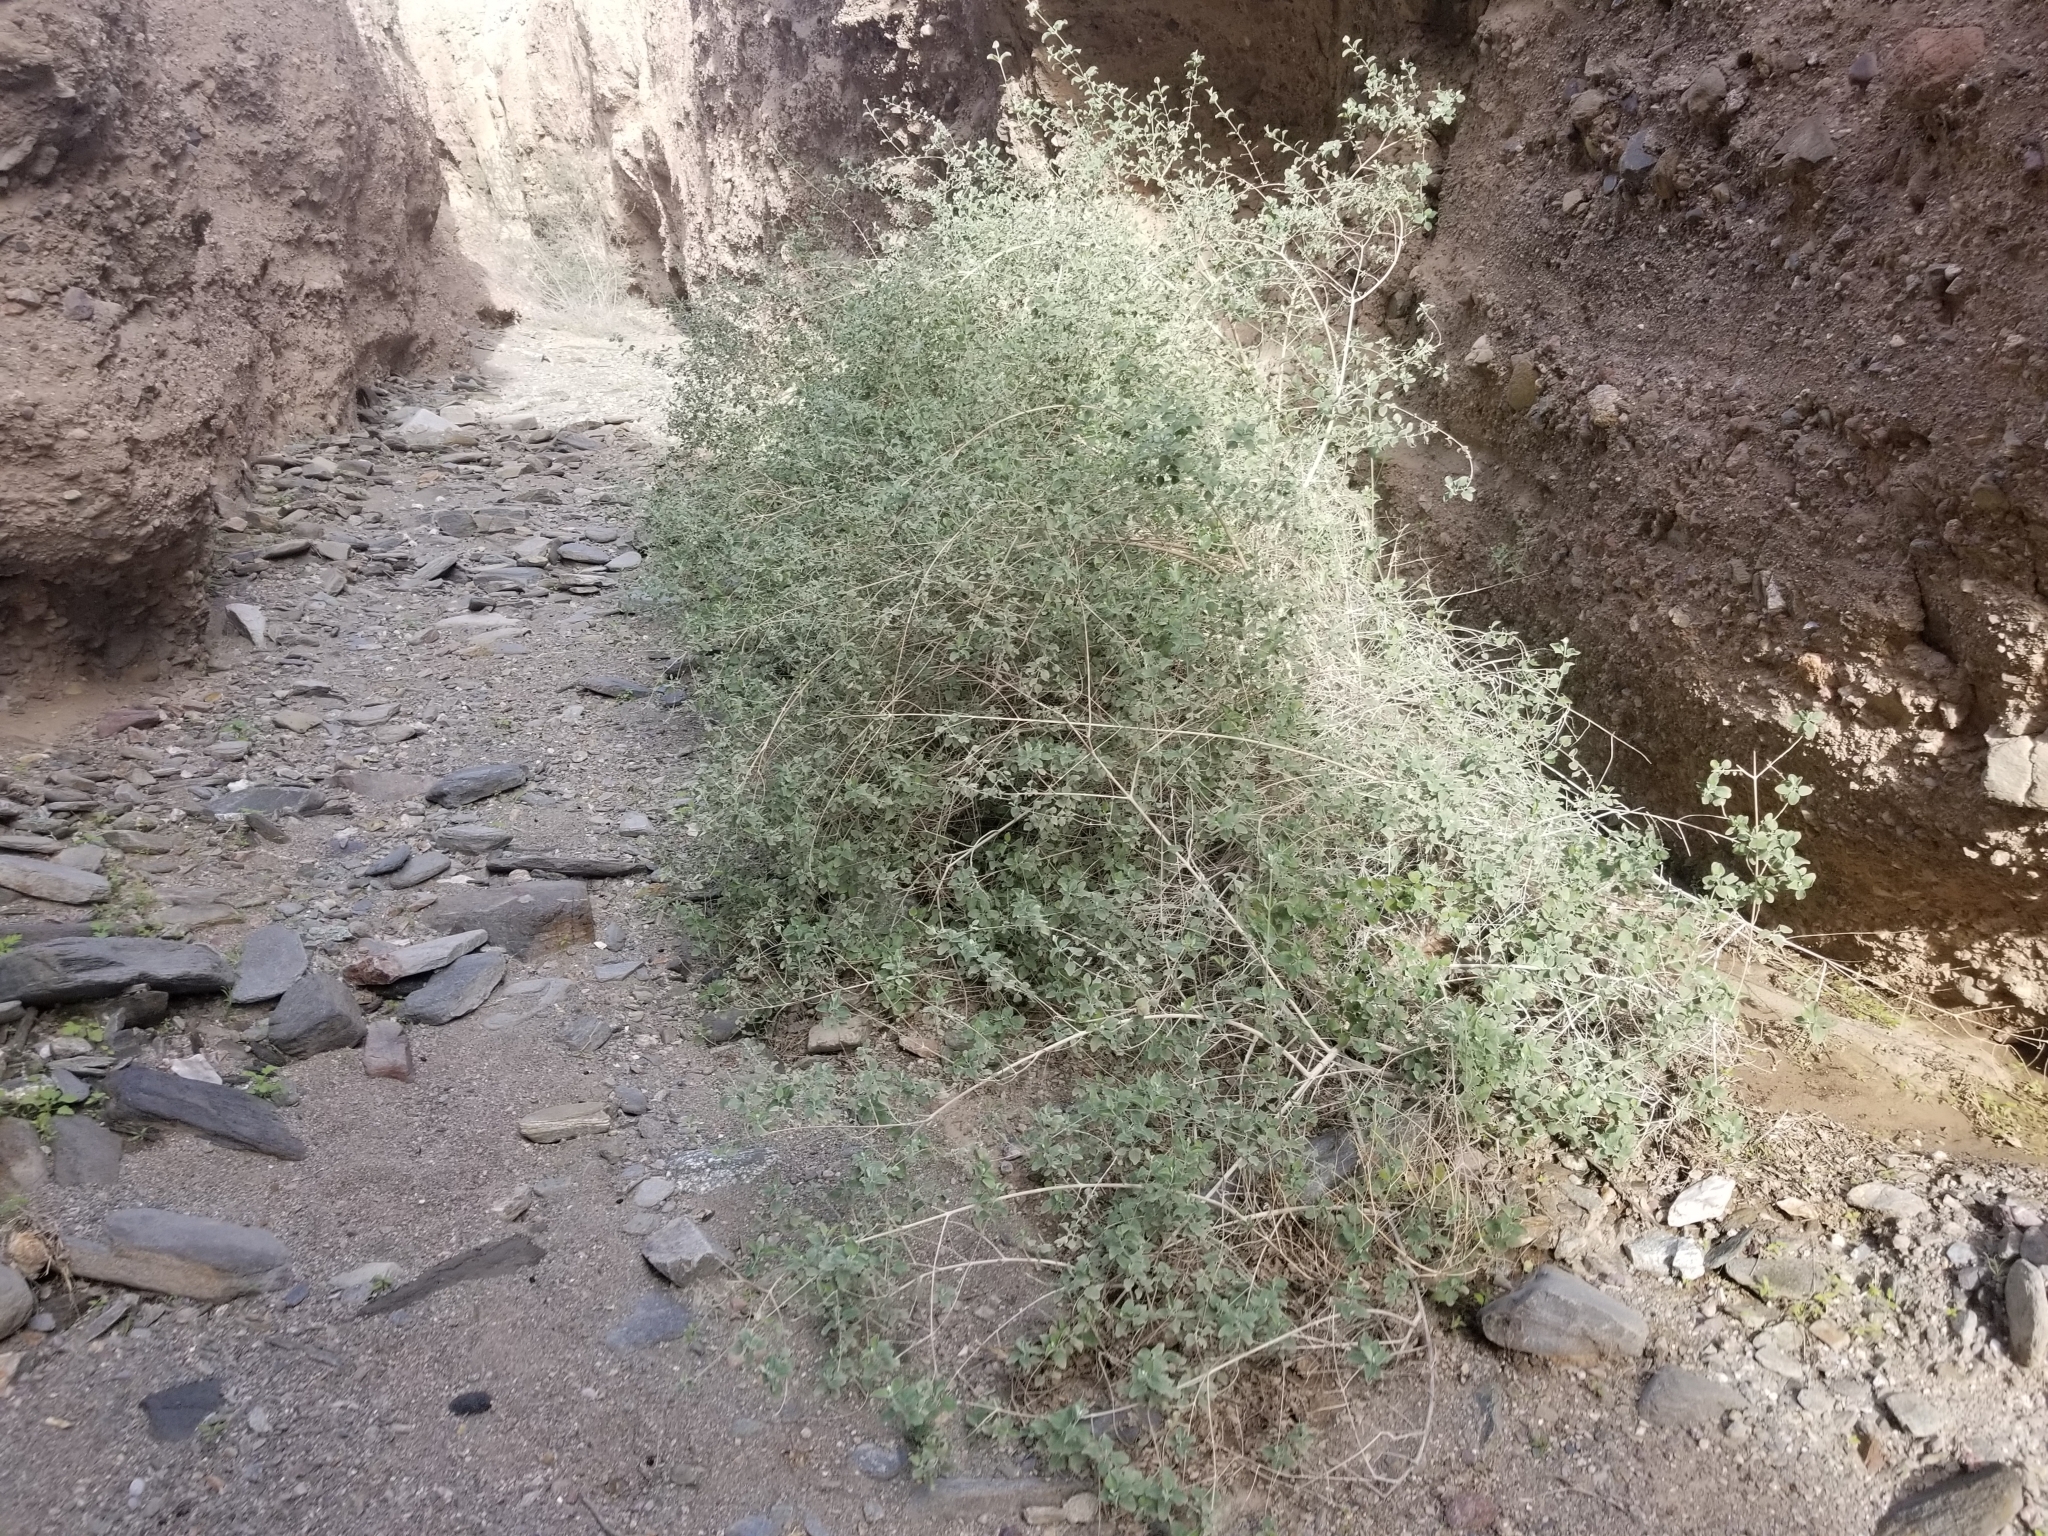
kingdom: Plantae
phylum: Tracheophyta
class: Magnoliopsida
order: Lamiales
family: Lamiaceae
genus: Condea
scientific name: Condea emoryi
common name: Chia
